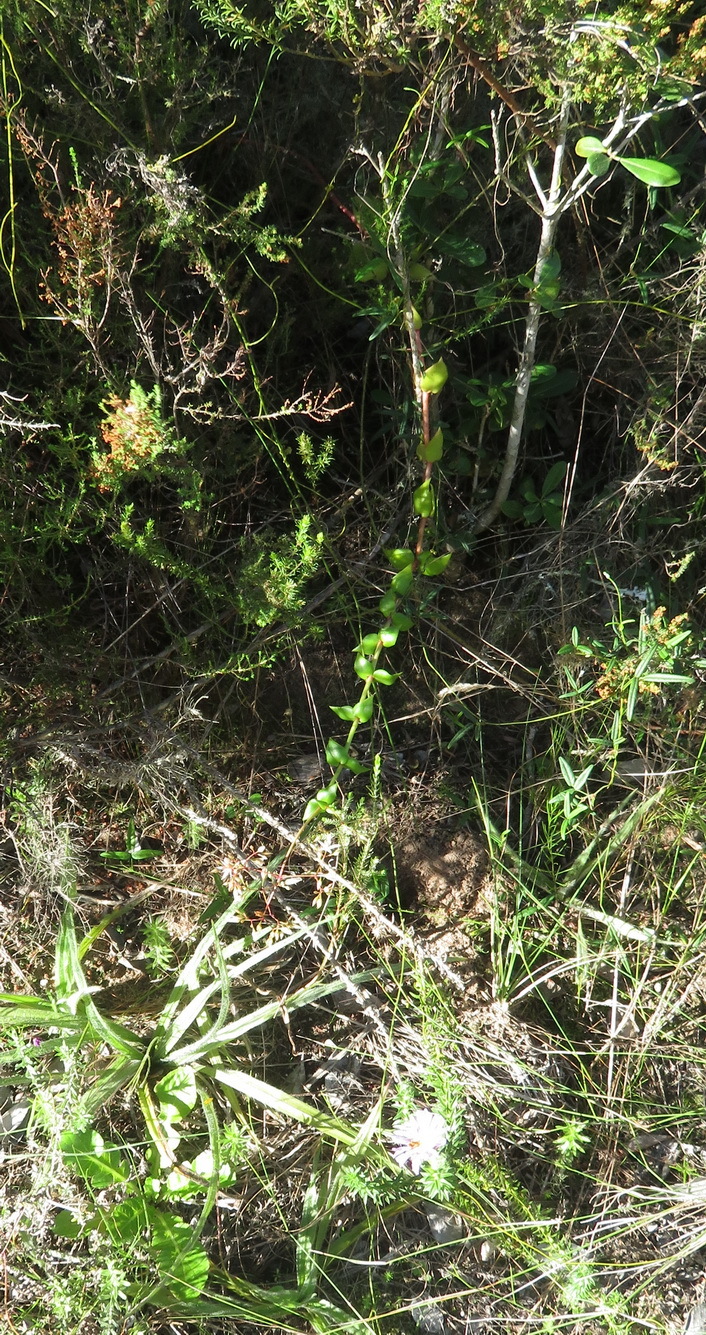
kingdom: Plantae
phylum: Tracheophyta
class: Magnoliopsida
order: Saxifragales
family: Crassulaceae
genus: Crassula
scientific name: Crassula sarmentosa
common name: Jade-tree
